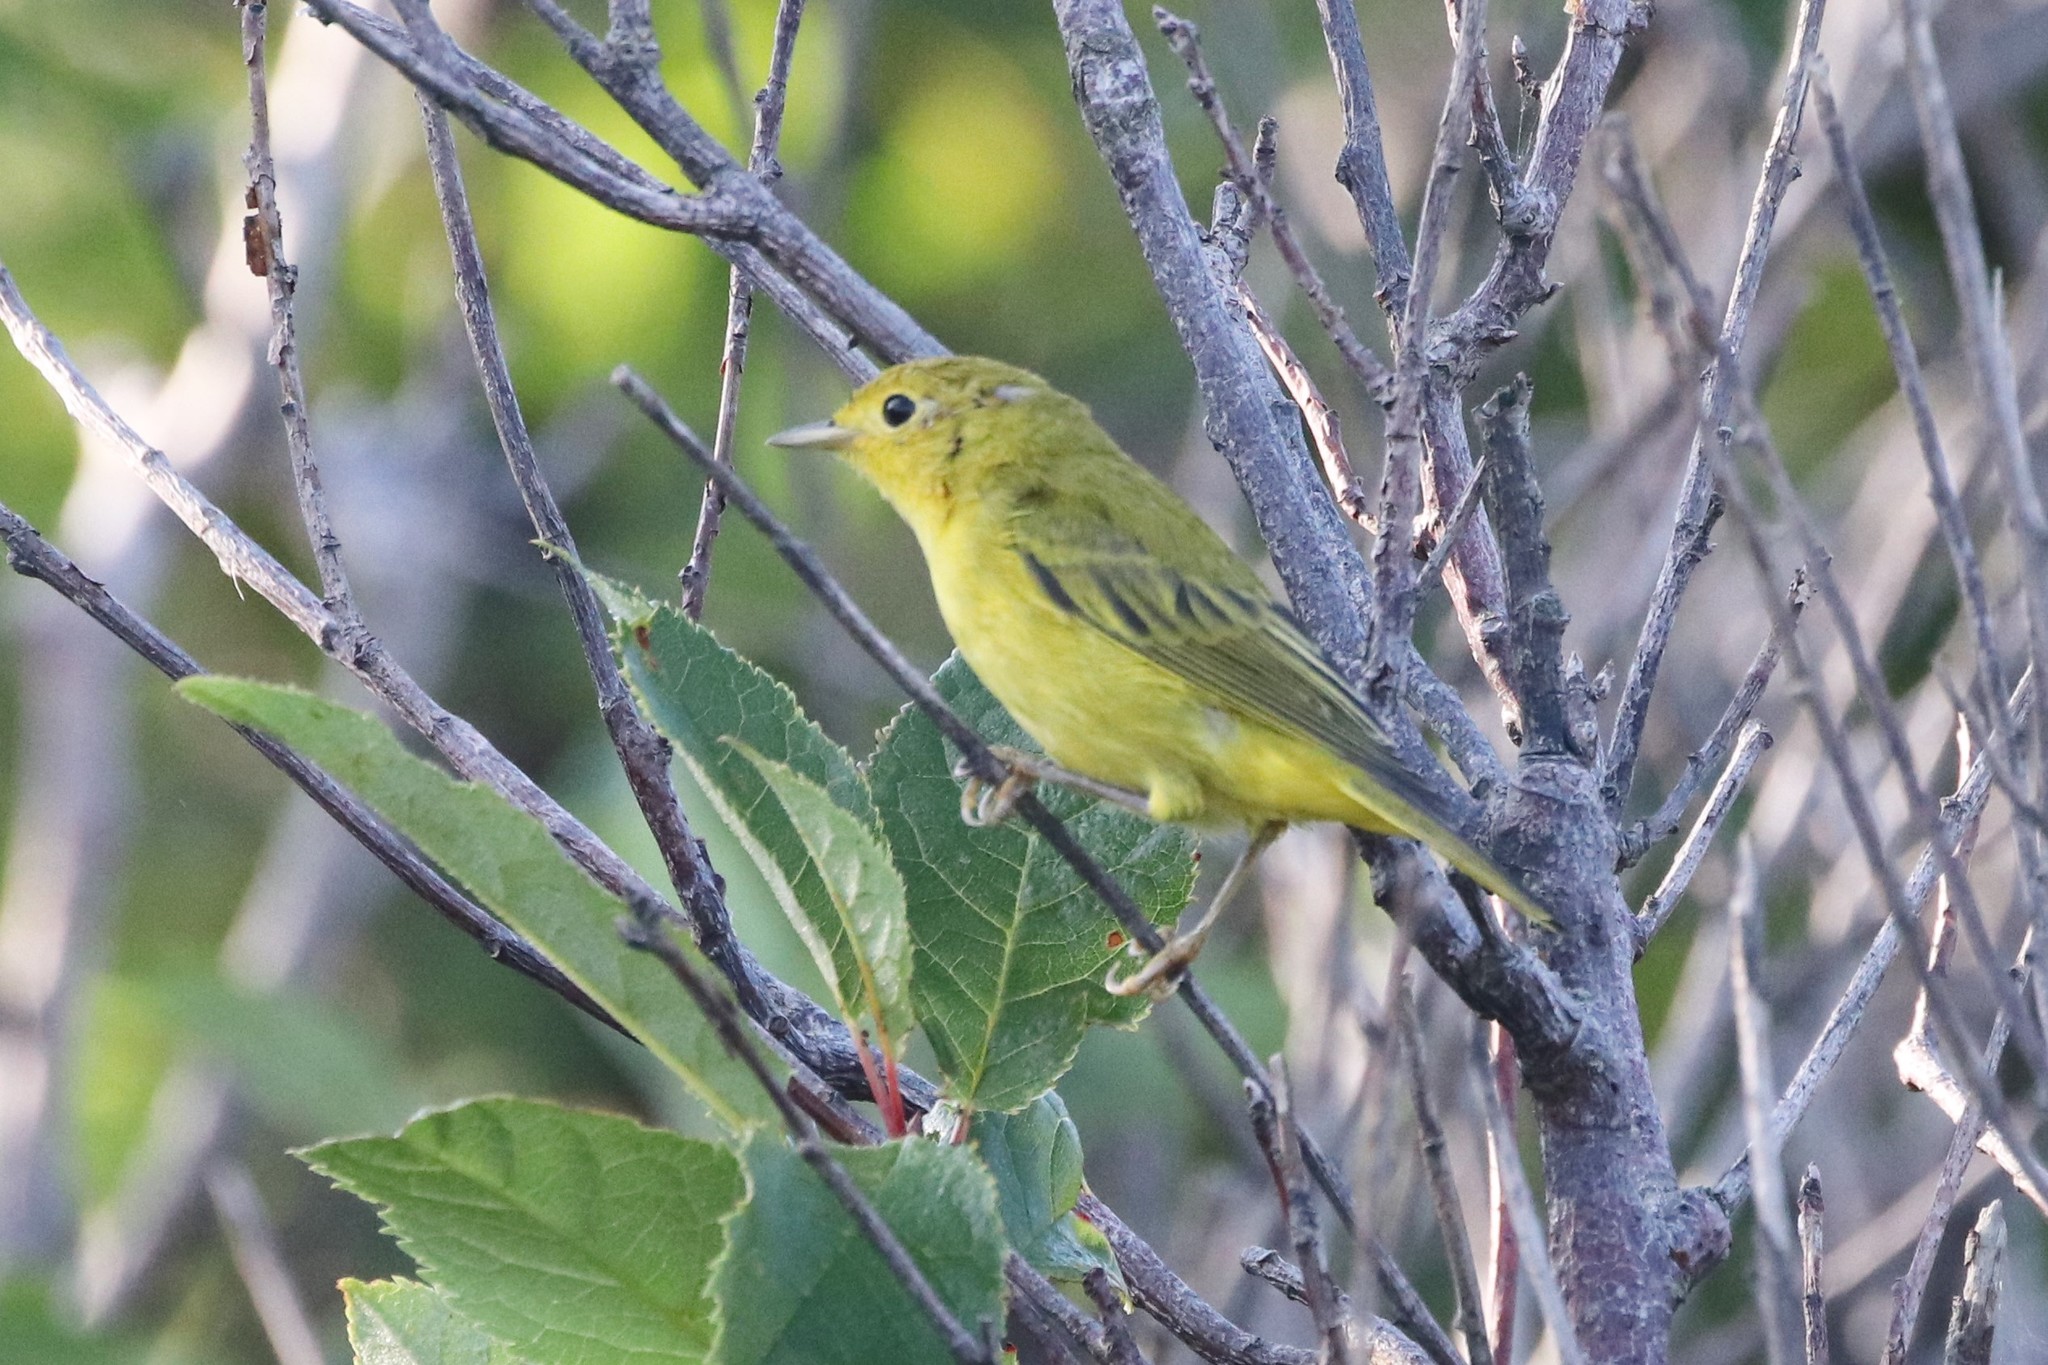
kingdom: Animalia
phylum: Chordata
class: Aves
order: Passeriformes
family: Parulidae
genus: Setophaga
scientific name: Setophaga petechia
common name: Yellow warbler
